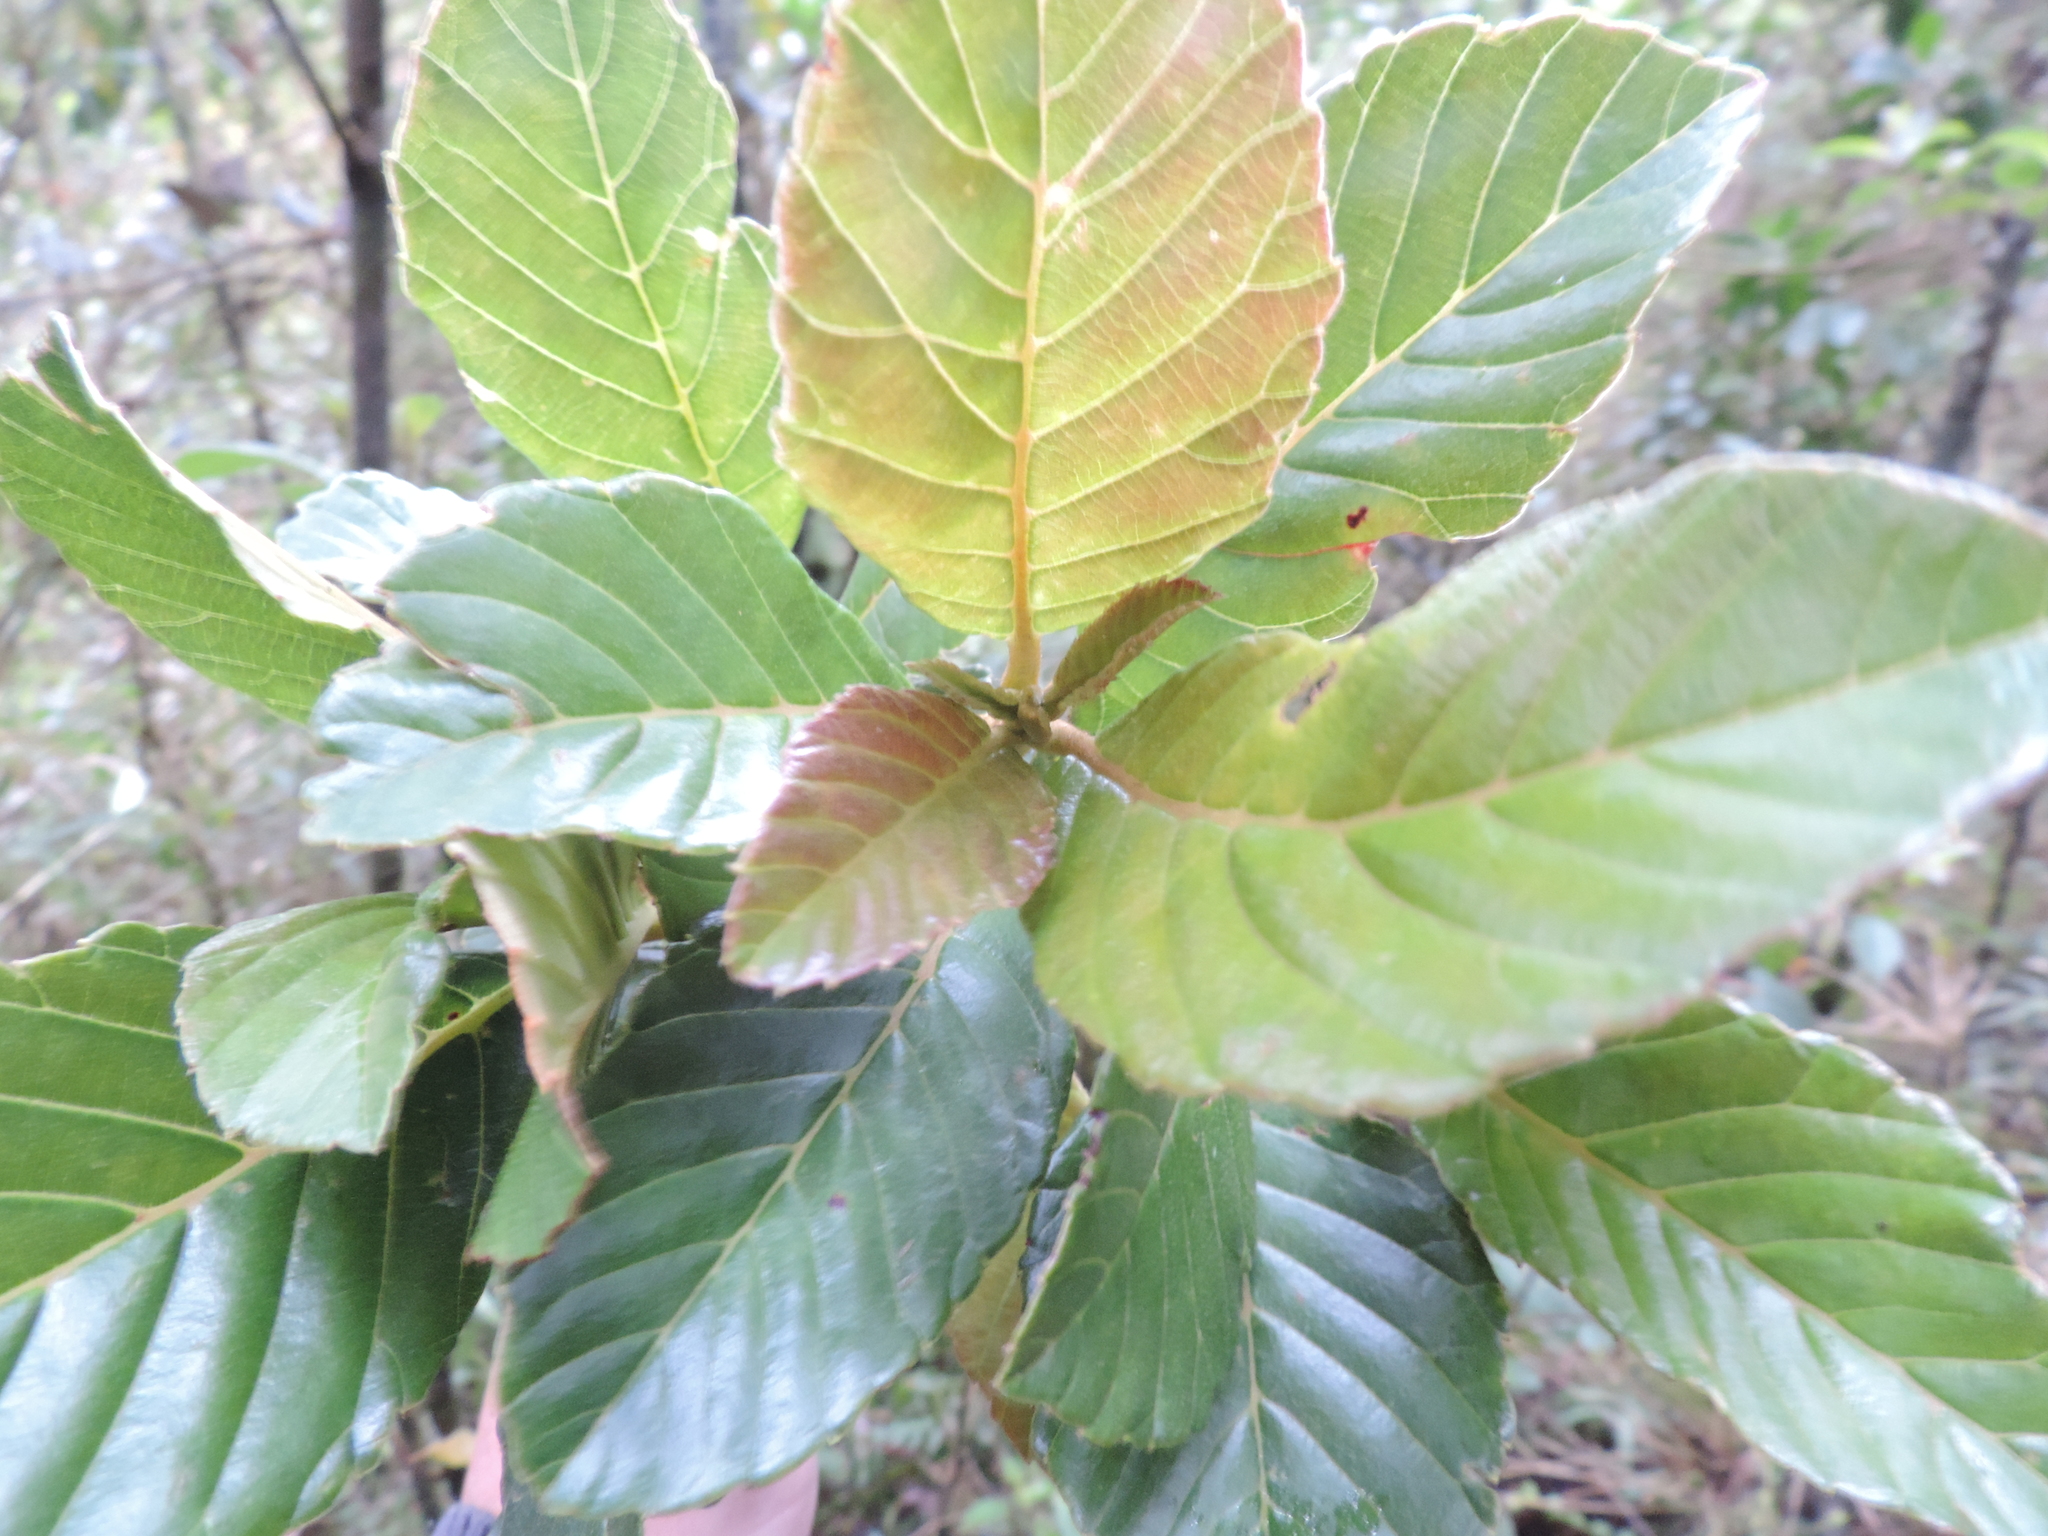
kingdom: Plantae
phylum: Tracheophyta
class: Magnoliopsida
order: Ericales
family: Clethraceae
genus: Clethra
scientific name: Clethra fagifolia
